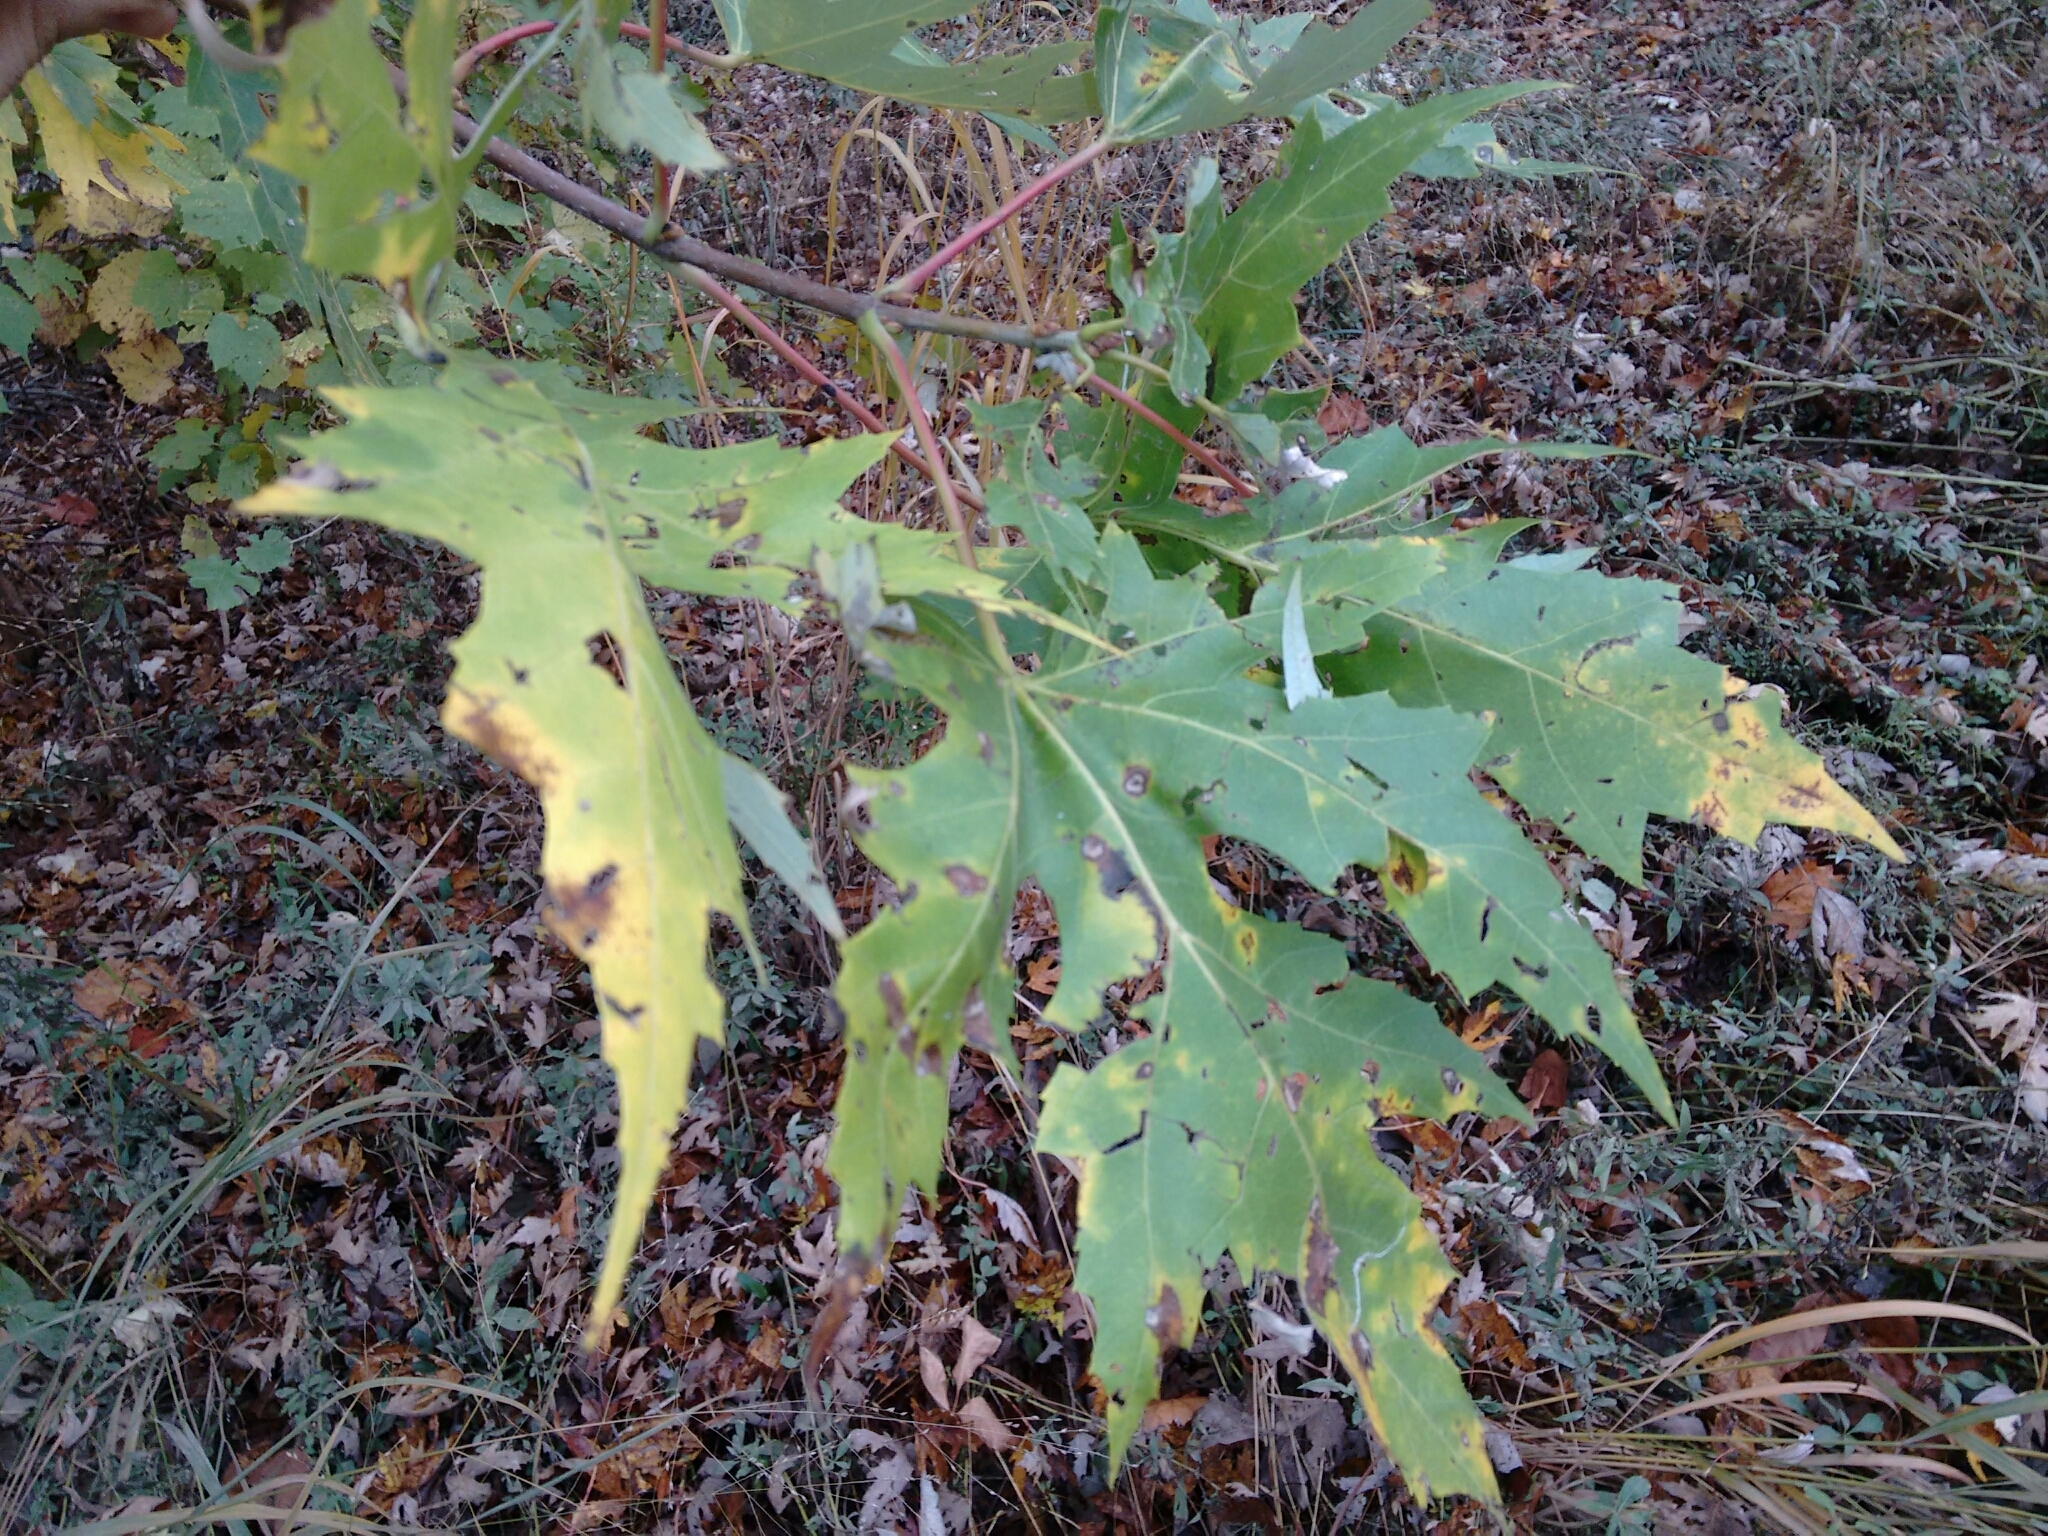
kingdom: Plantae
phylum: Tracheophyta
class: Magnoliopsida
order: Sapindales
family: Sapindaceae
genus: Acer
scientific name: Acer saccharinum
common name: Silver maple
